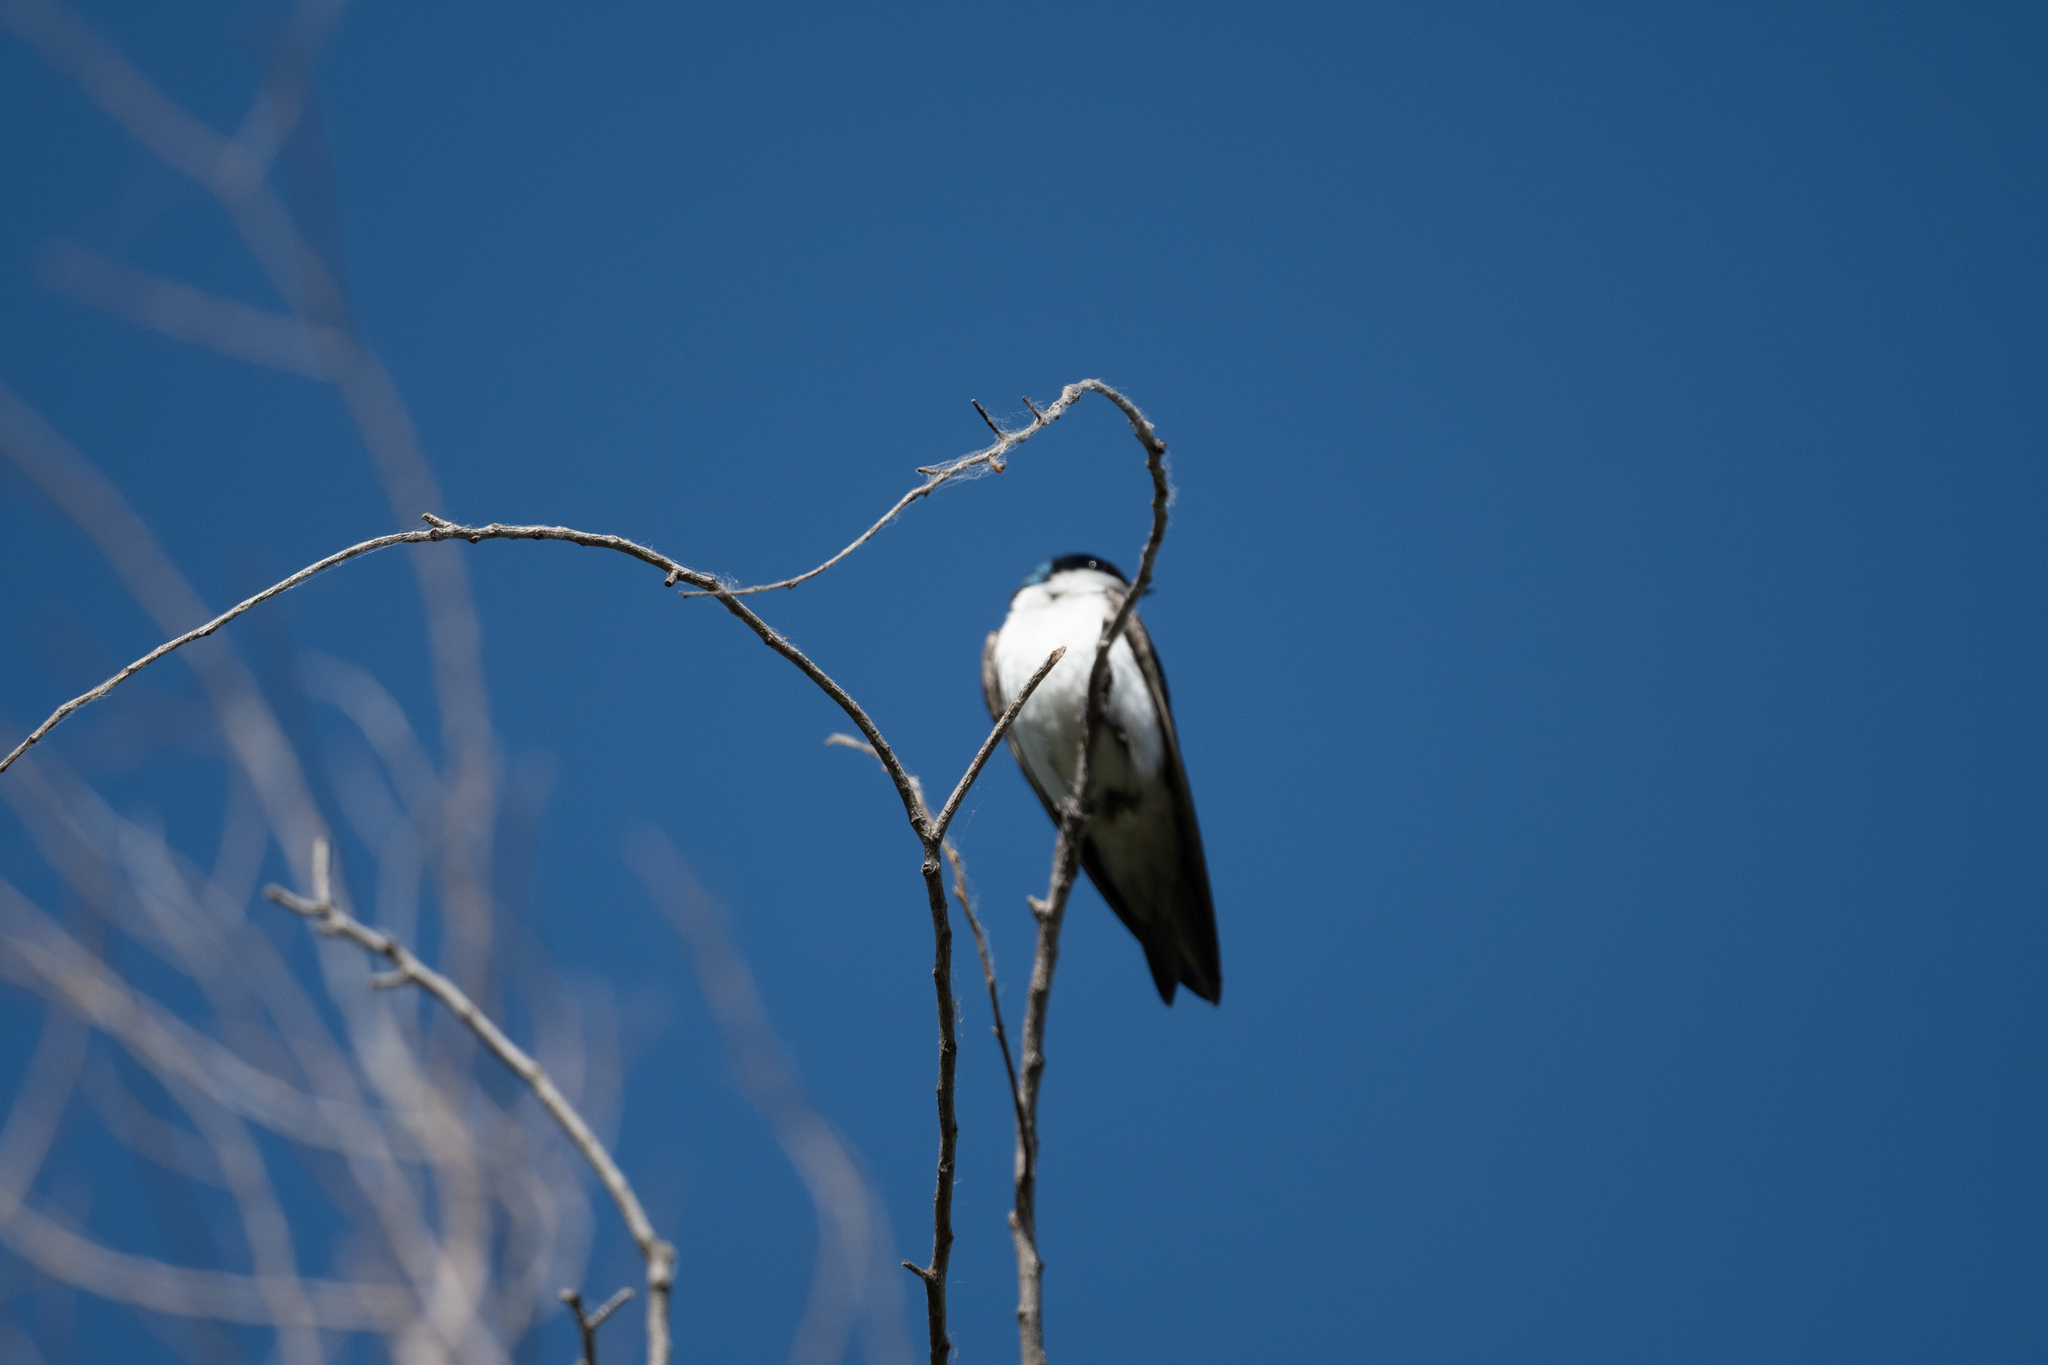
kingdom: Animalia
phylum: Chordata
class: Aves
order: Passeriformes
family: Hirundinidae
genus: Tachycineta
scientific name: Tachycineta bicolor
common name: Tree swallow
